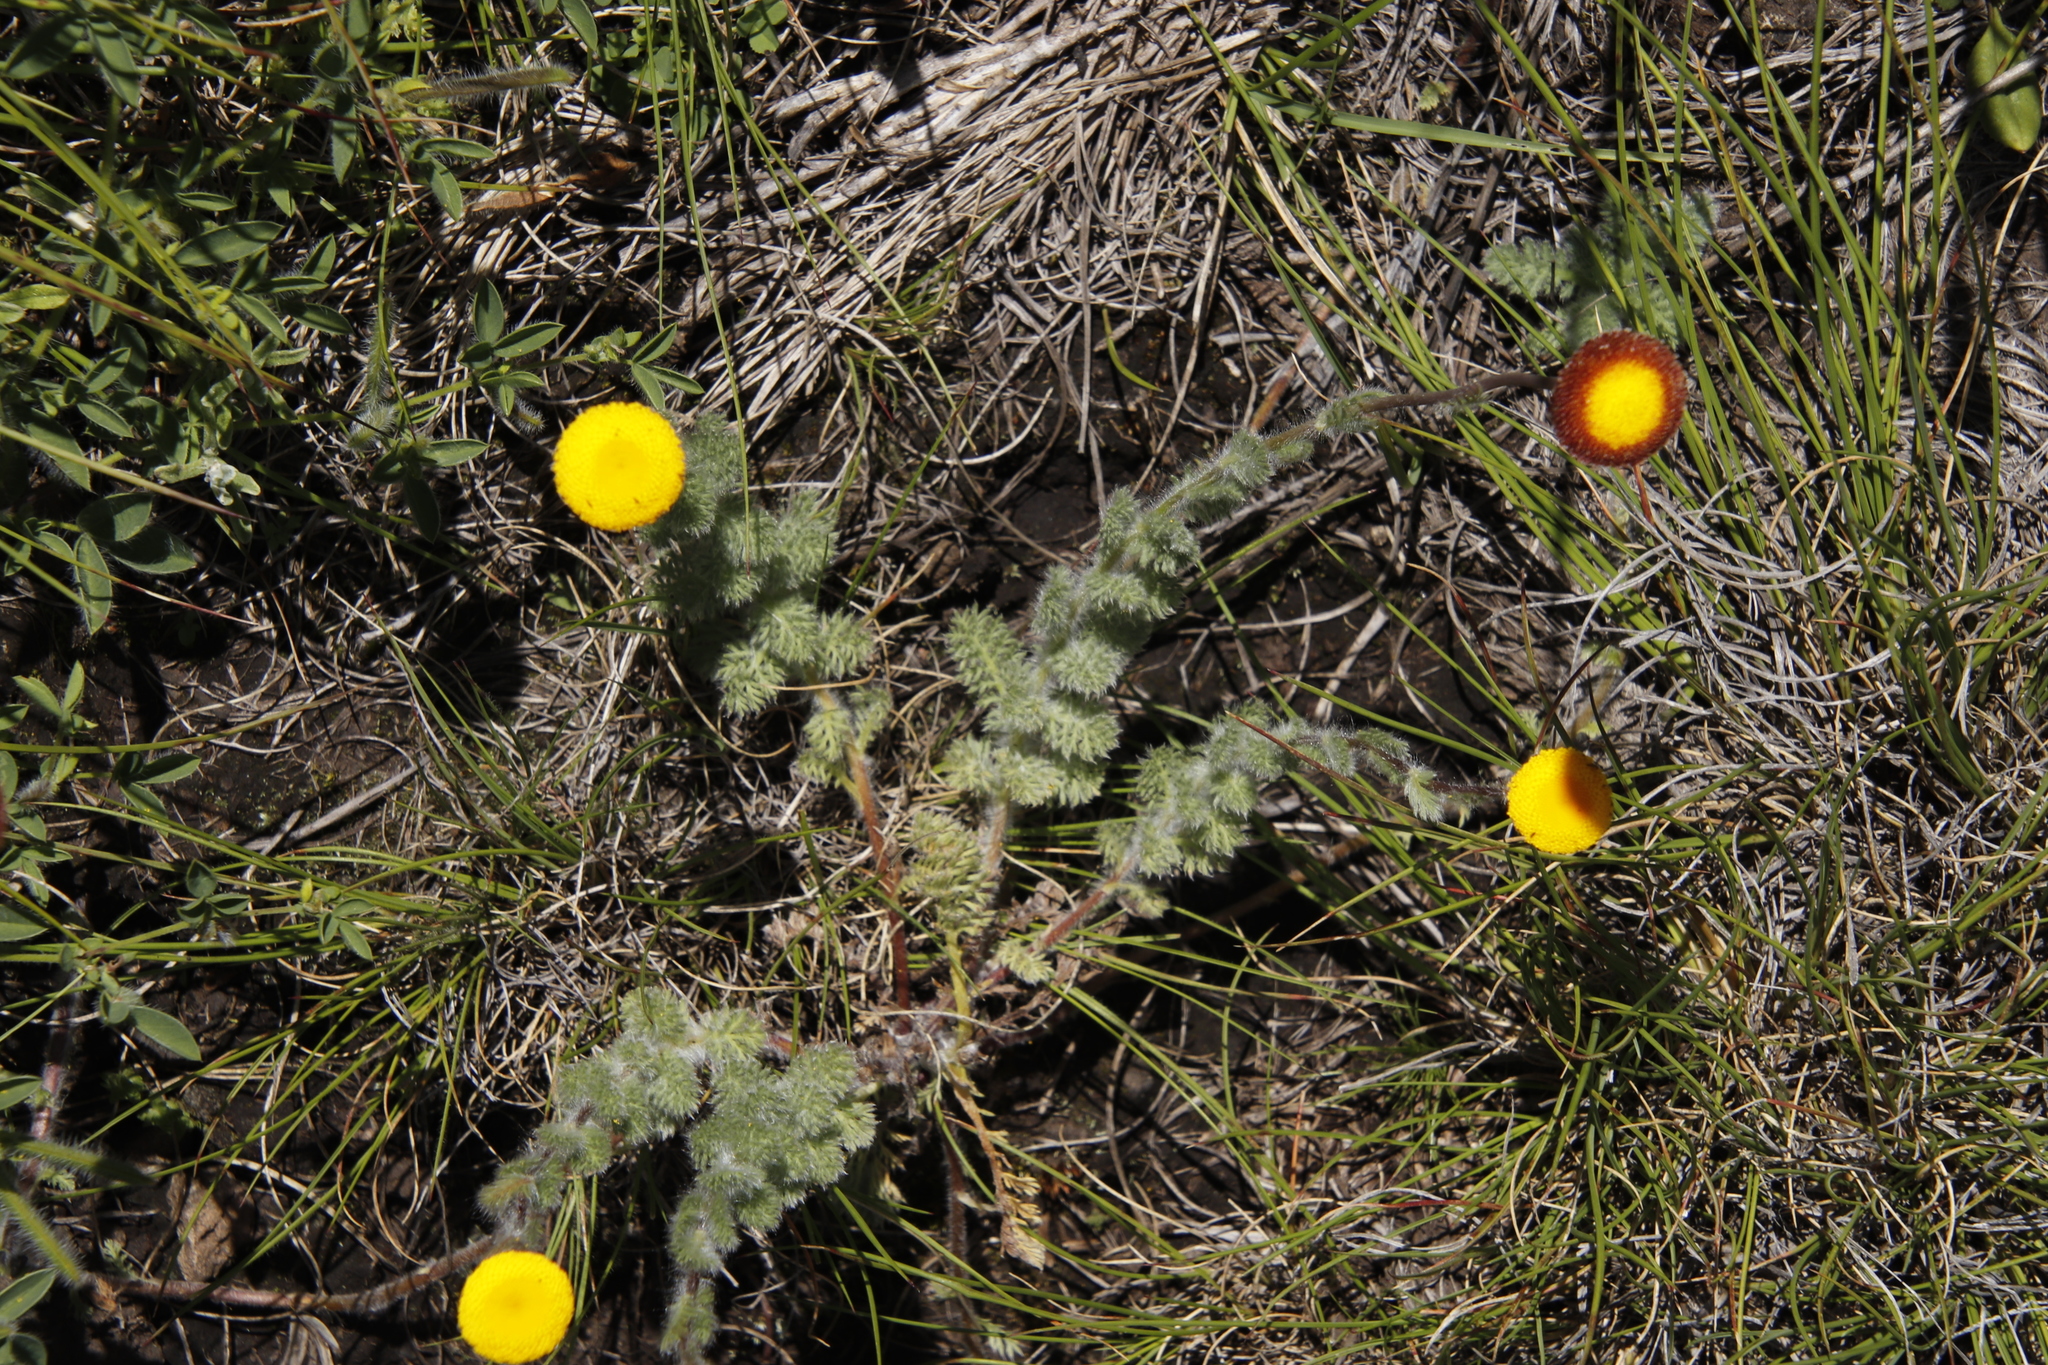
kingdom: Plantae
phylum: Tracheophyta
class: Magnoliopsida
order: Asterales
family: Asteraceae
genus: Cotula
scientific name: Cotula socialis
